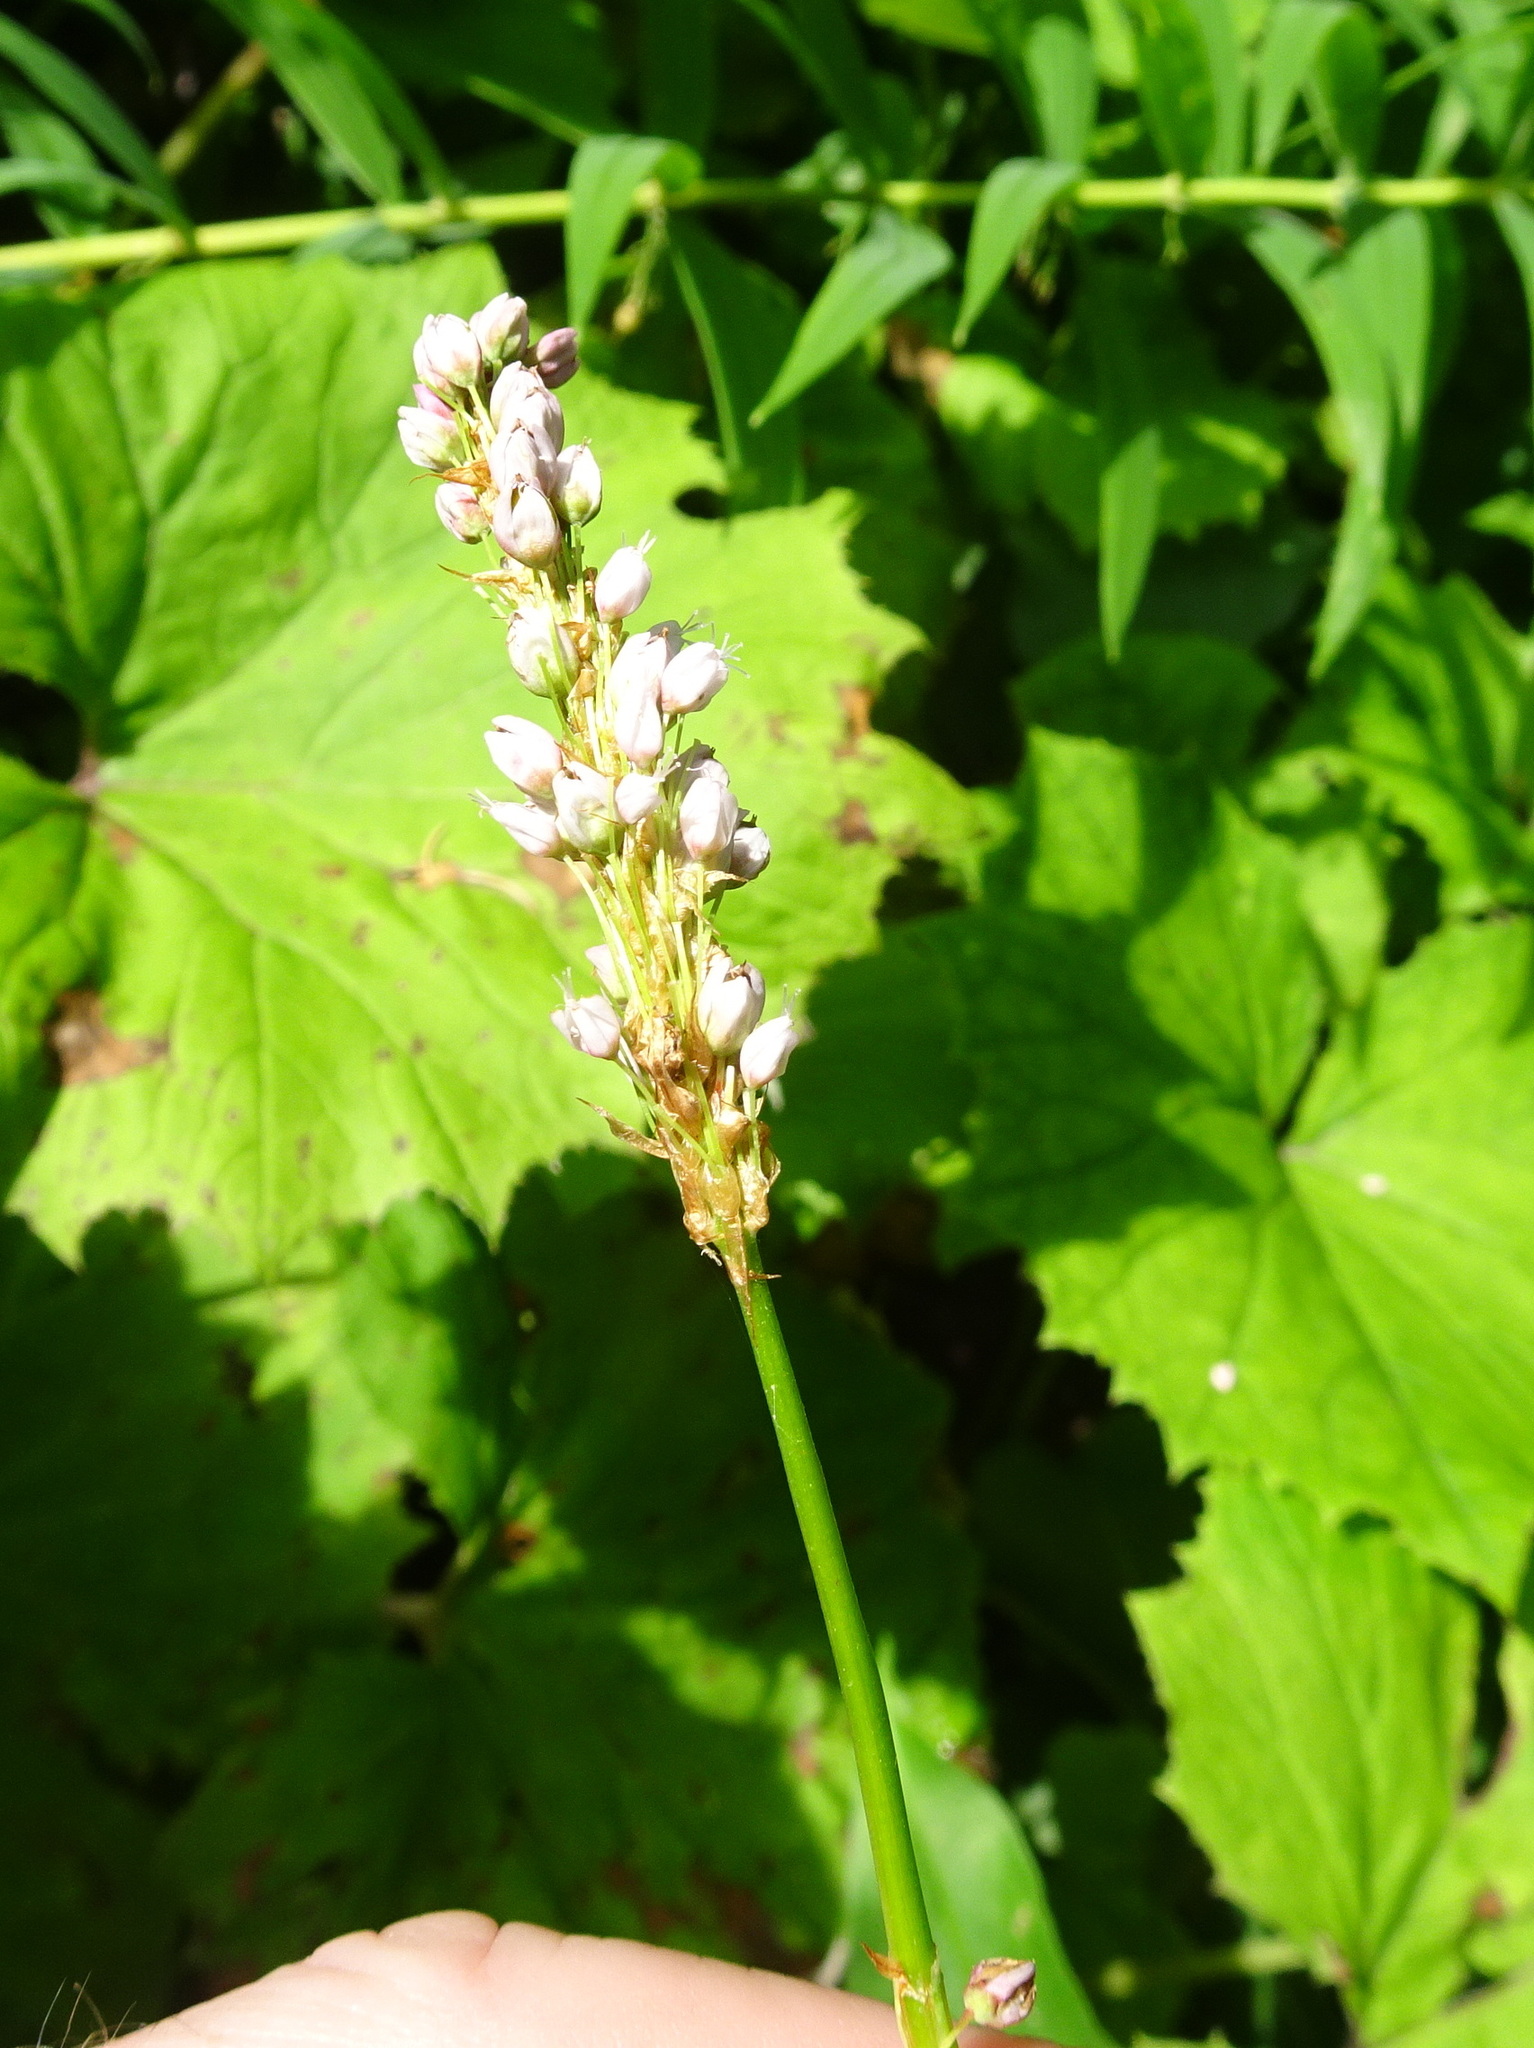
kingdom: Plantae
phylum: Tracheophyta
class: Magnoliopsida
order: Caryophyllales
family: Polygonaceae
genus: Bistorta
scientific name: Bistorta officinalis
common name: Common bistort
